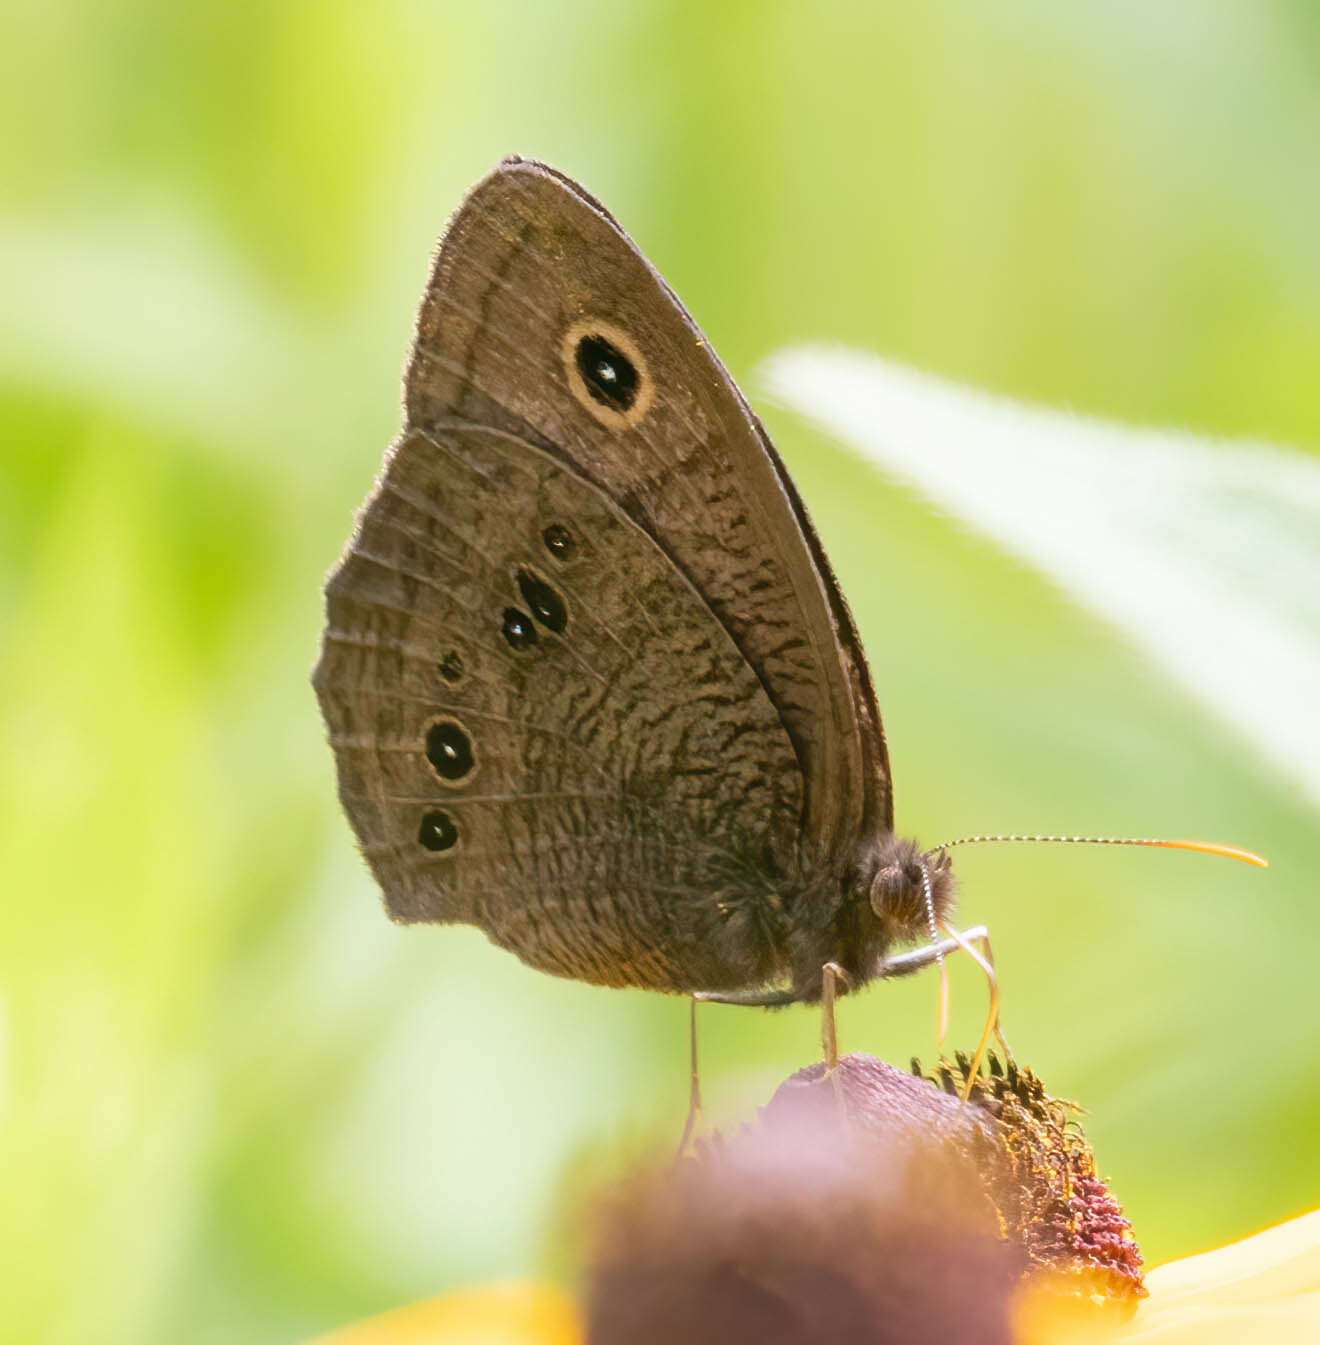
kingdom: Animalia
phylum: Arthropoda
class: Insecta
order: Lepidoptera
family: Nymphalidae
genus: Cercyonis
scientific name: Cercyonis pegala
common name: Common wood-nymph
